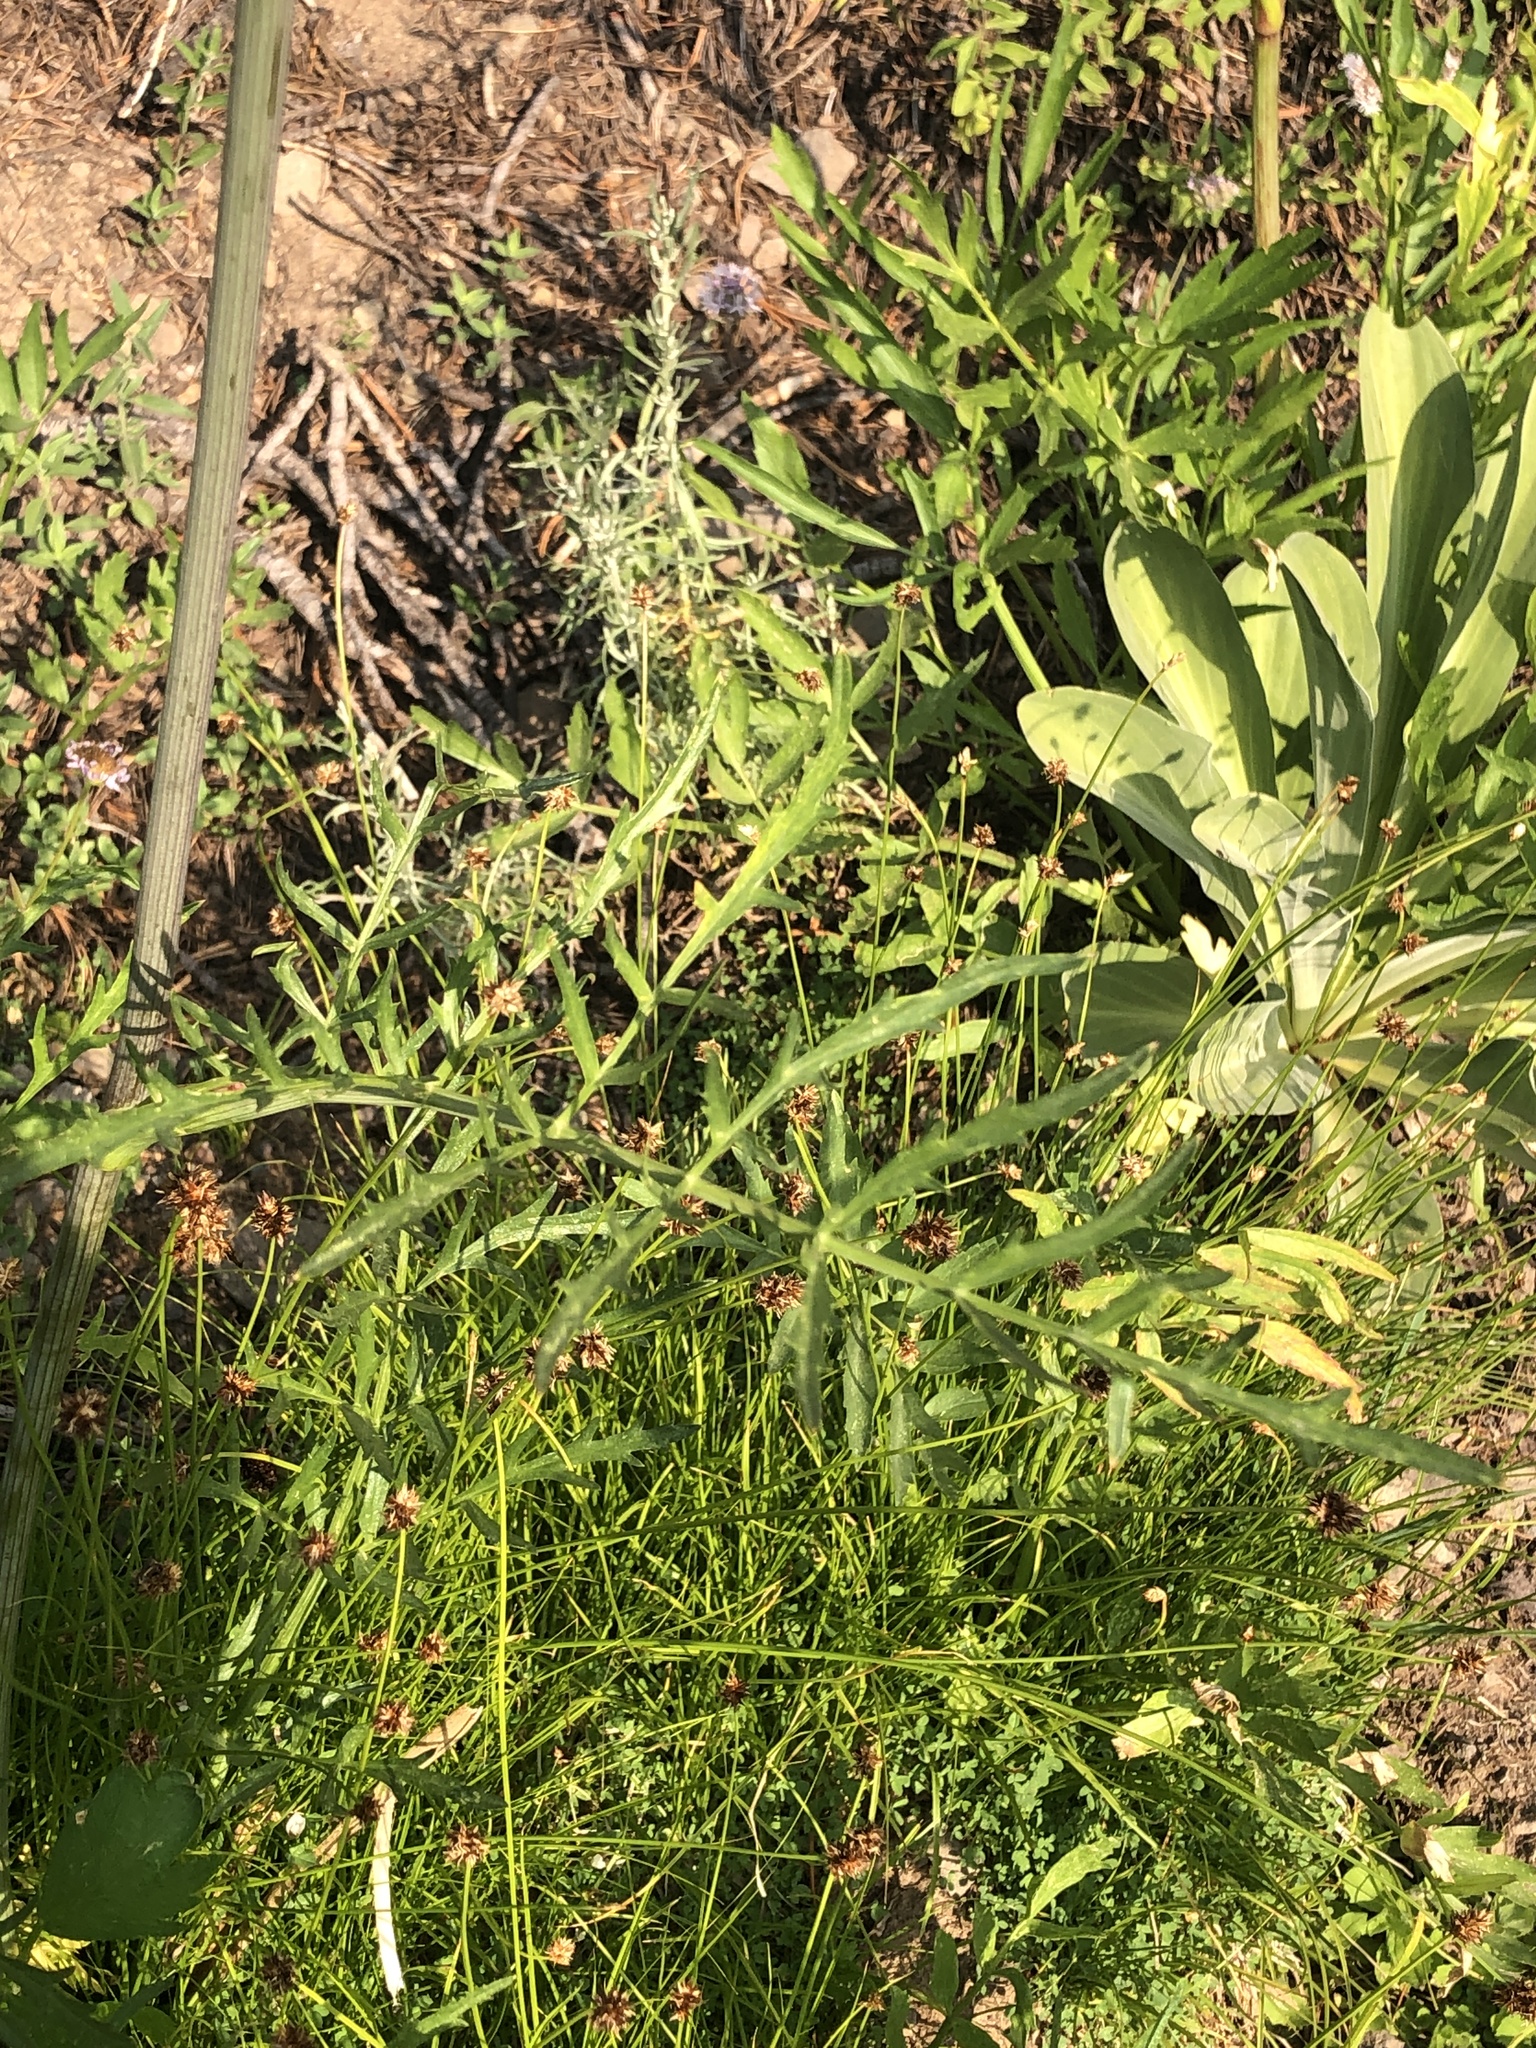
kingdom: Plantae
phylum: Tracheophyta
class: Magnoliopsida
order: Apiales
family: Apiaceae
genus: Angelica
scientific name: Angelica capitellata
